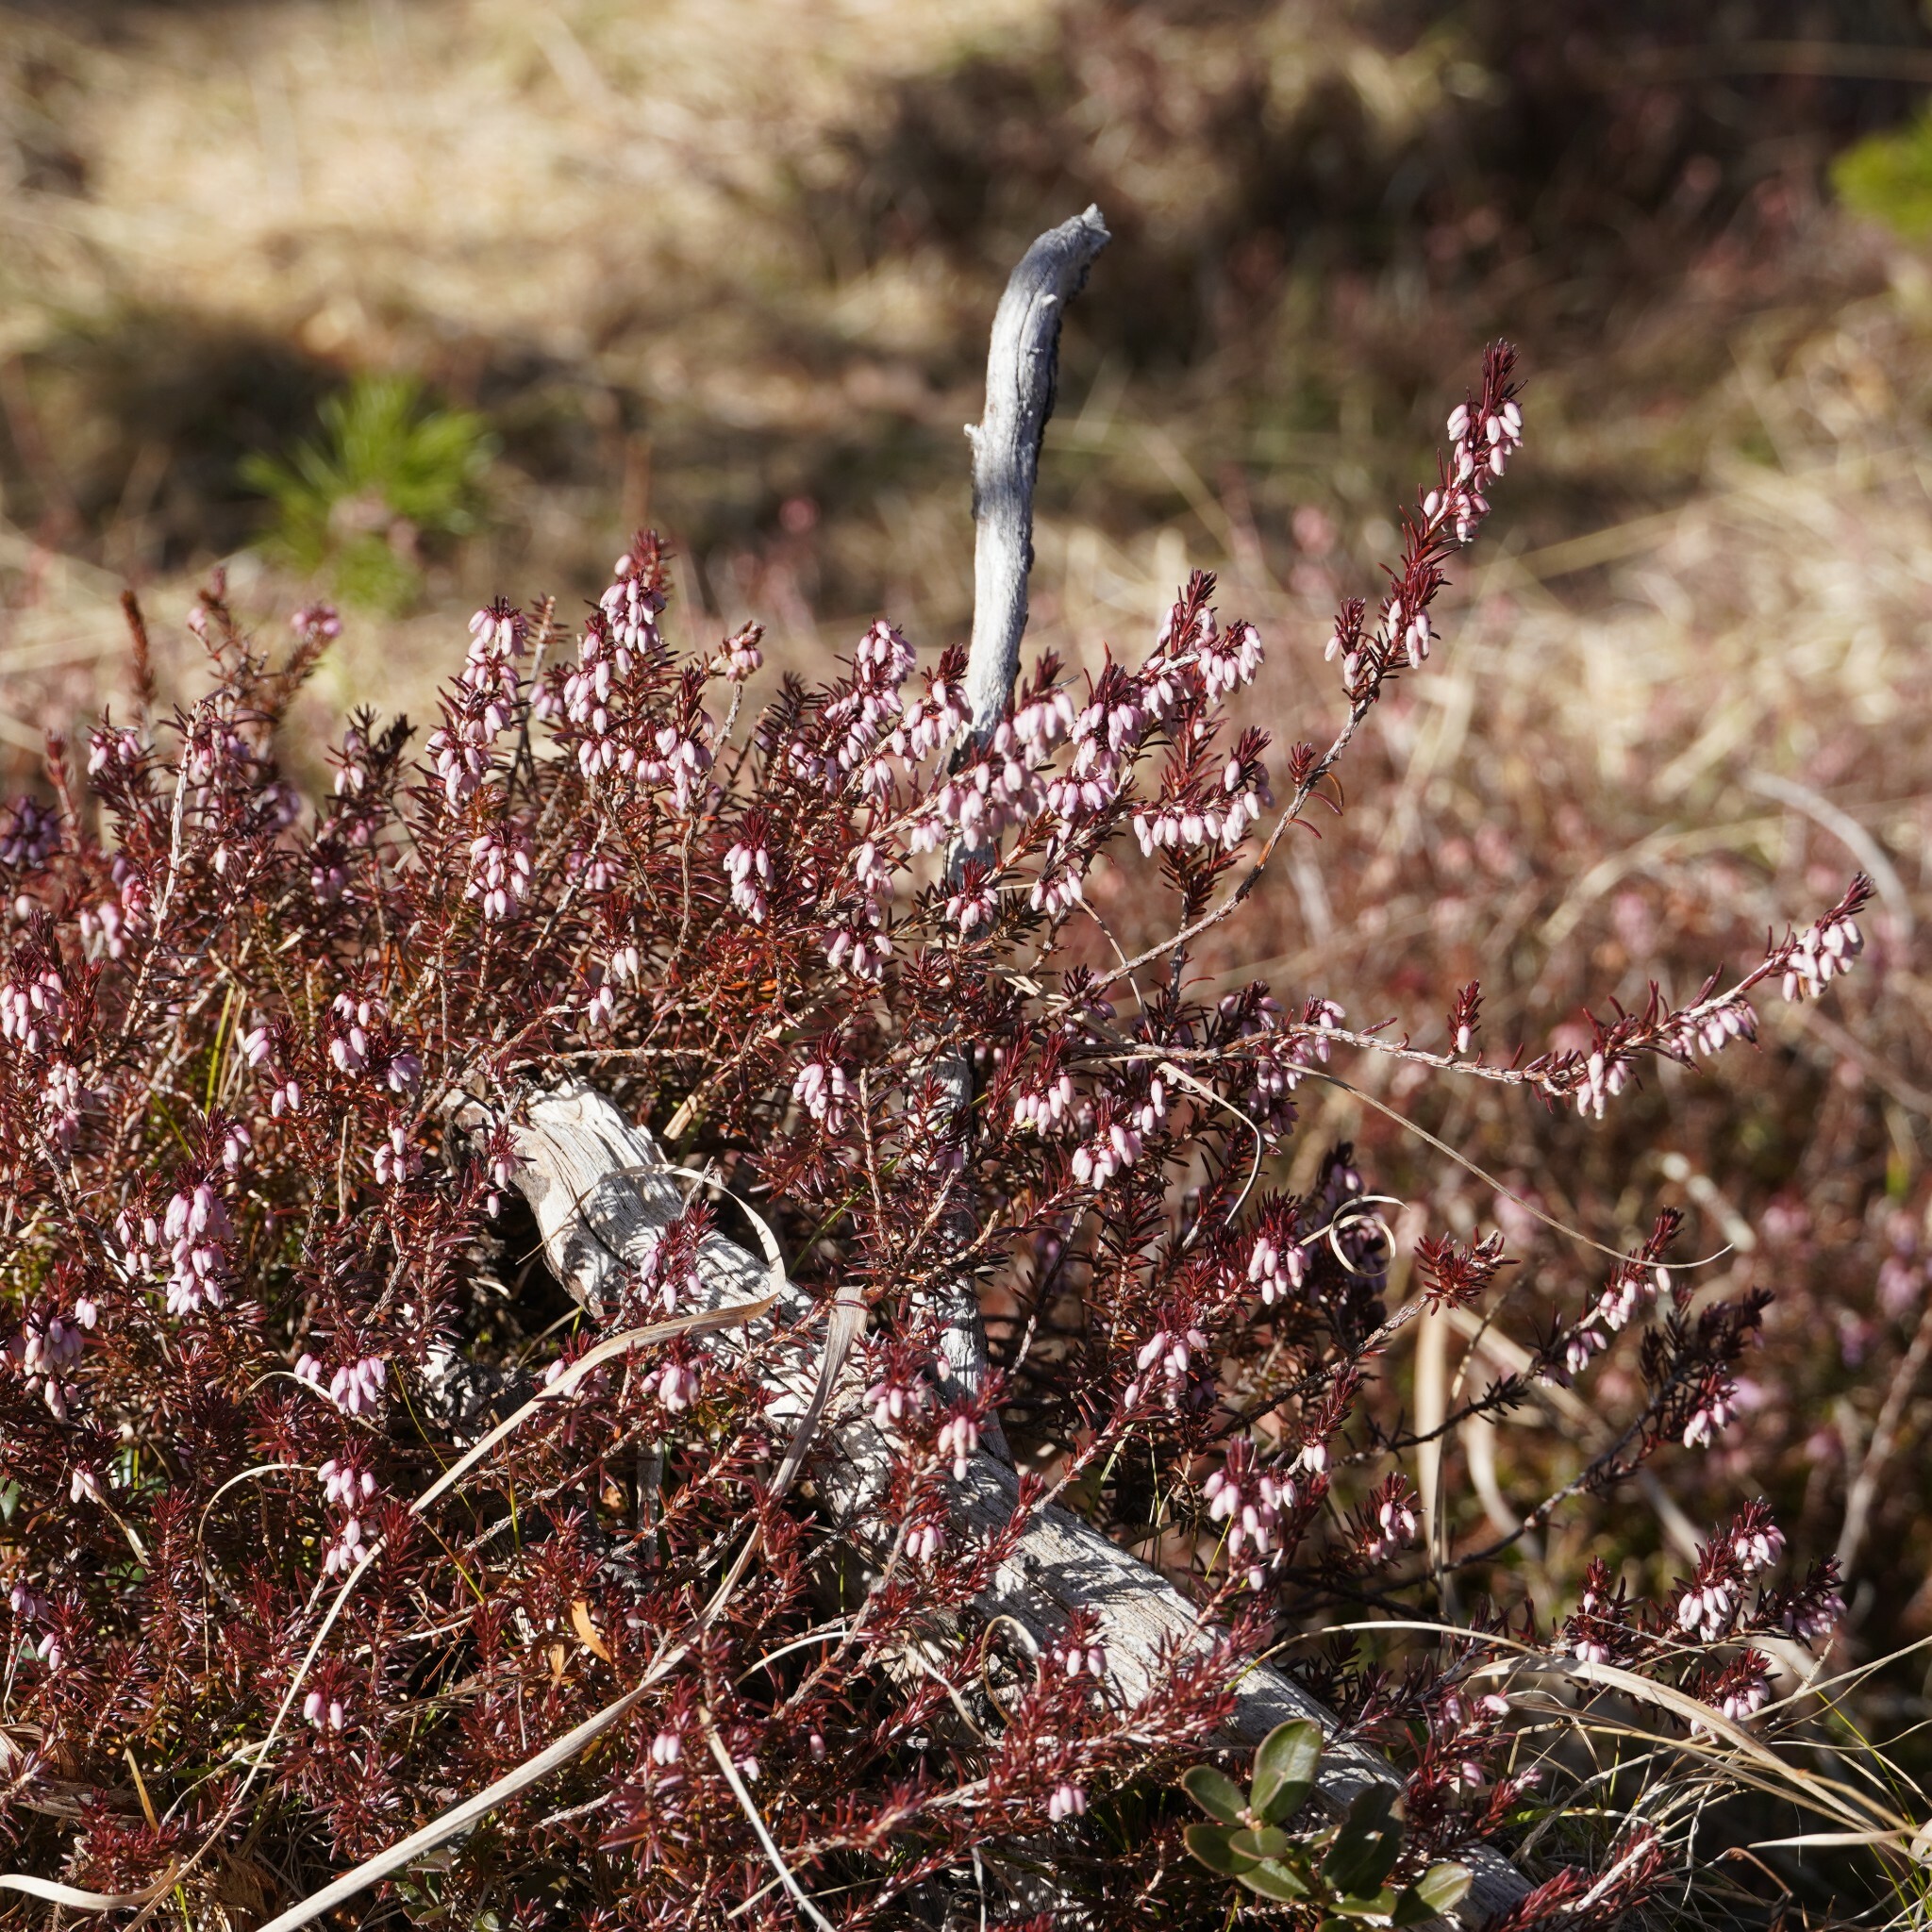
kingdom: Plantae
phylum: Tracheophyta
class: Magnoliopsida
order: Ericales
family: Ericaceae
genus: Erica
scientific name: Erica carnea
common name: Winter heath
